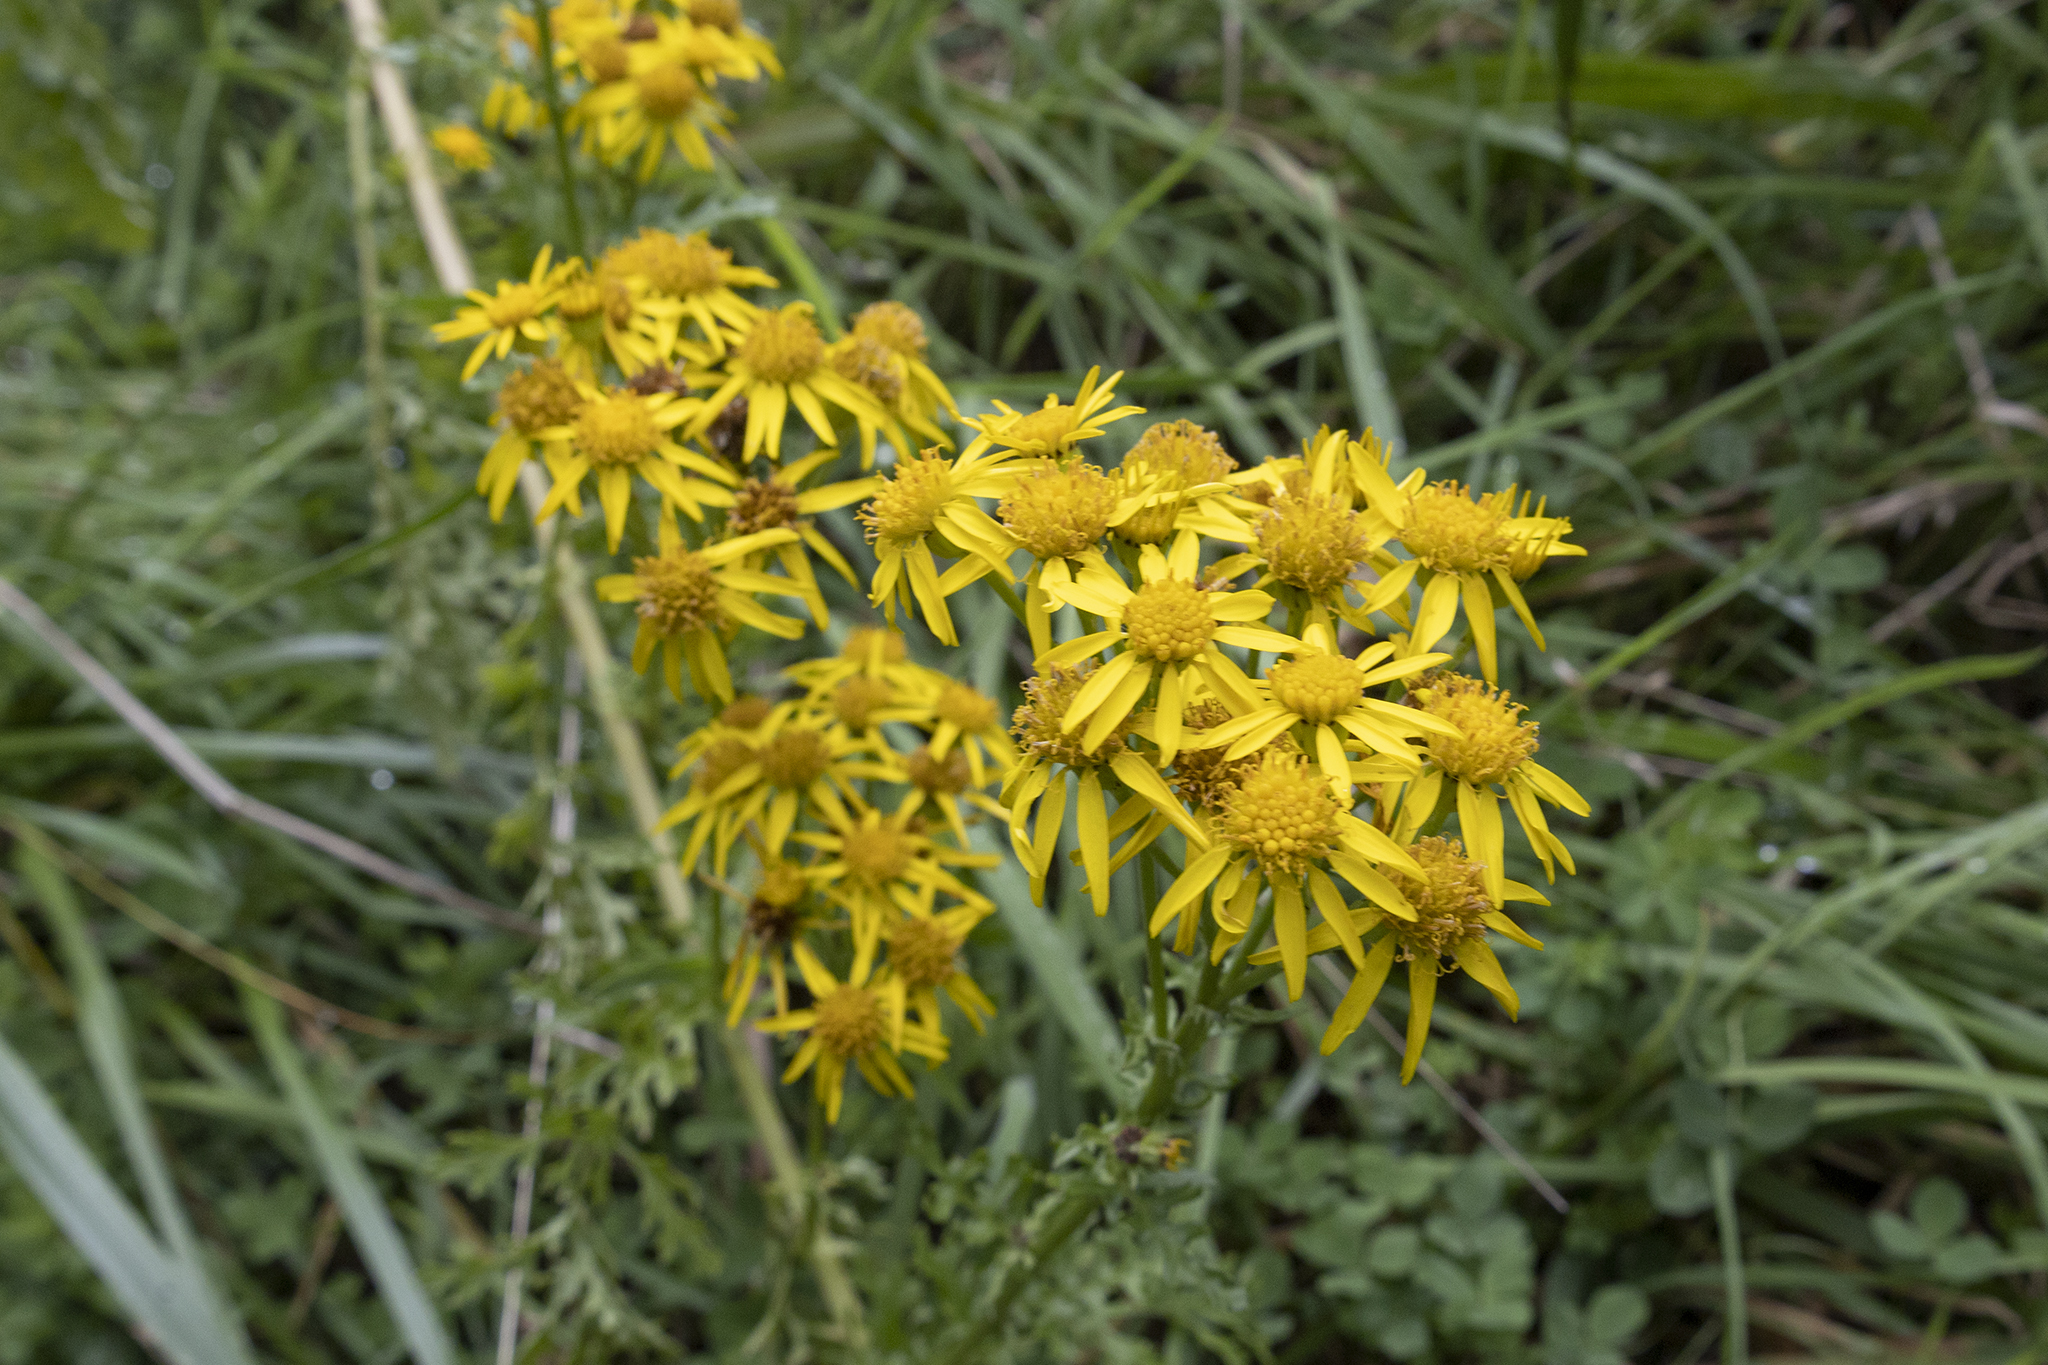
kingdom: Plantae
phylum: Tracheophyta
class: Magnoliopsida
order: Asterales
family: Asteraceae
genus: Jacobaea
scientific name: Jacobaea vulgaris
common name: Stinking willie
